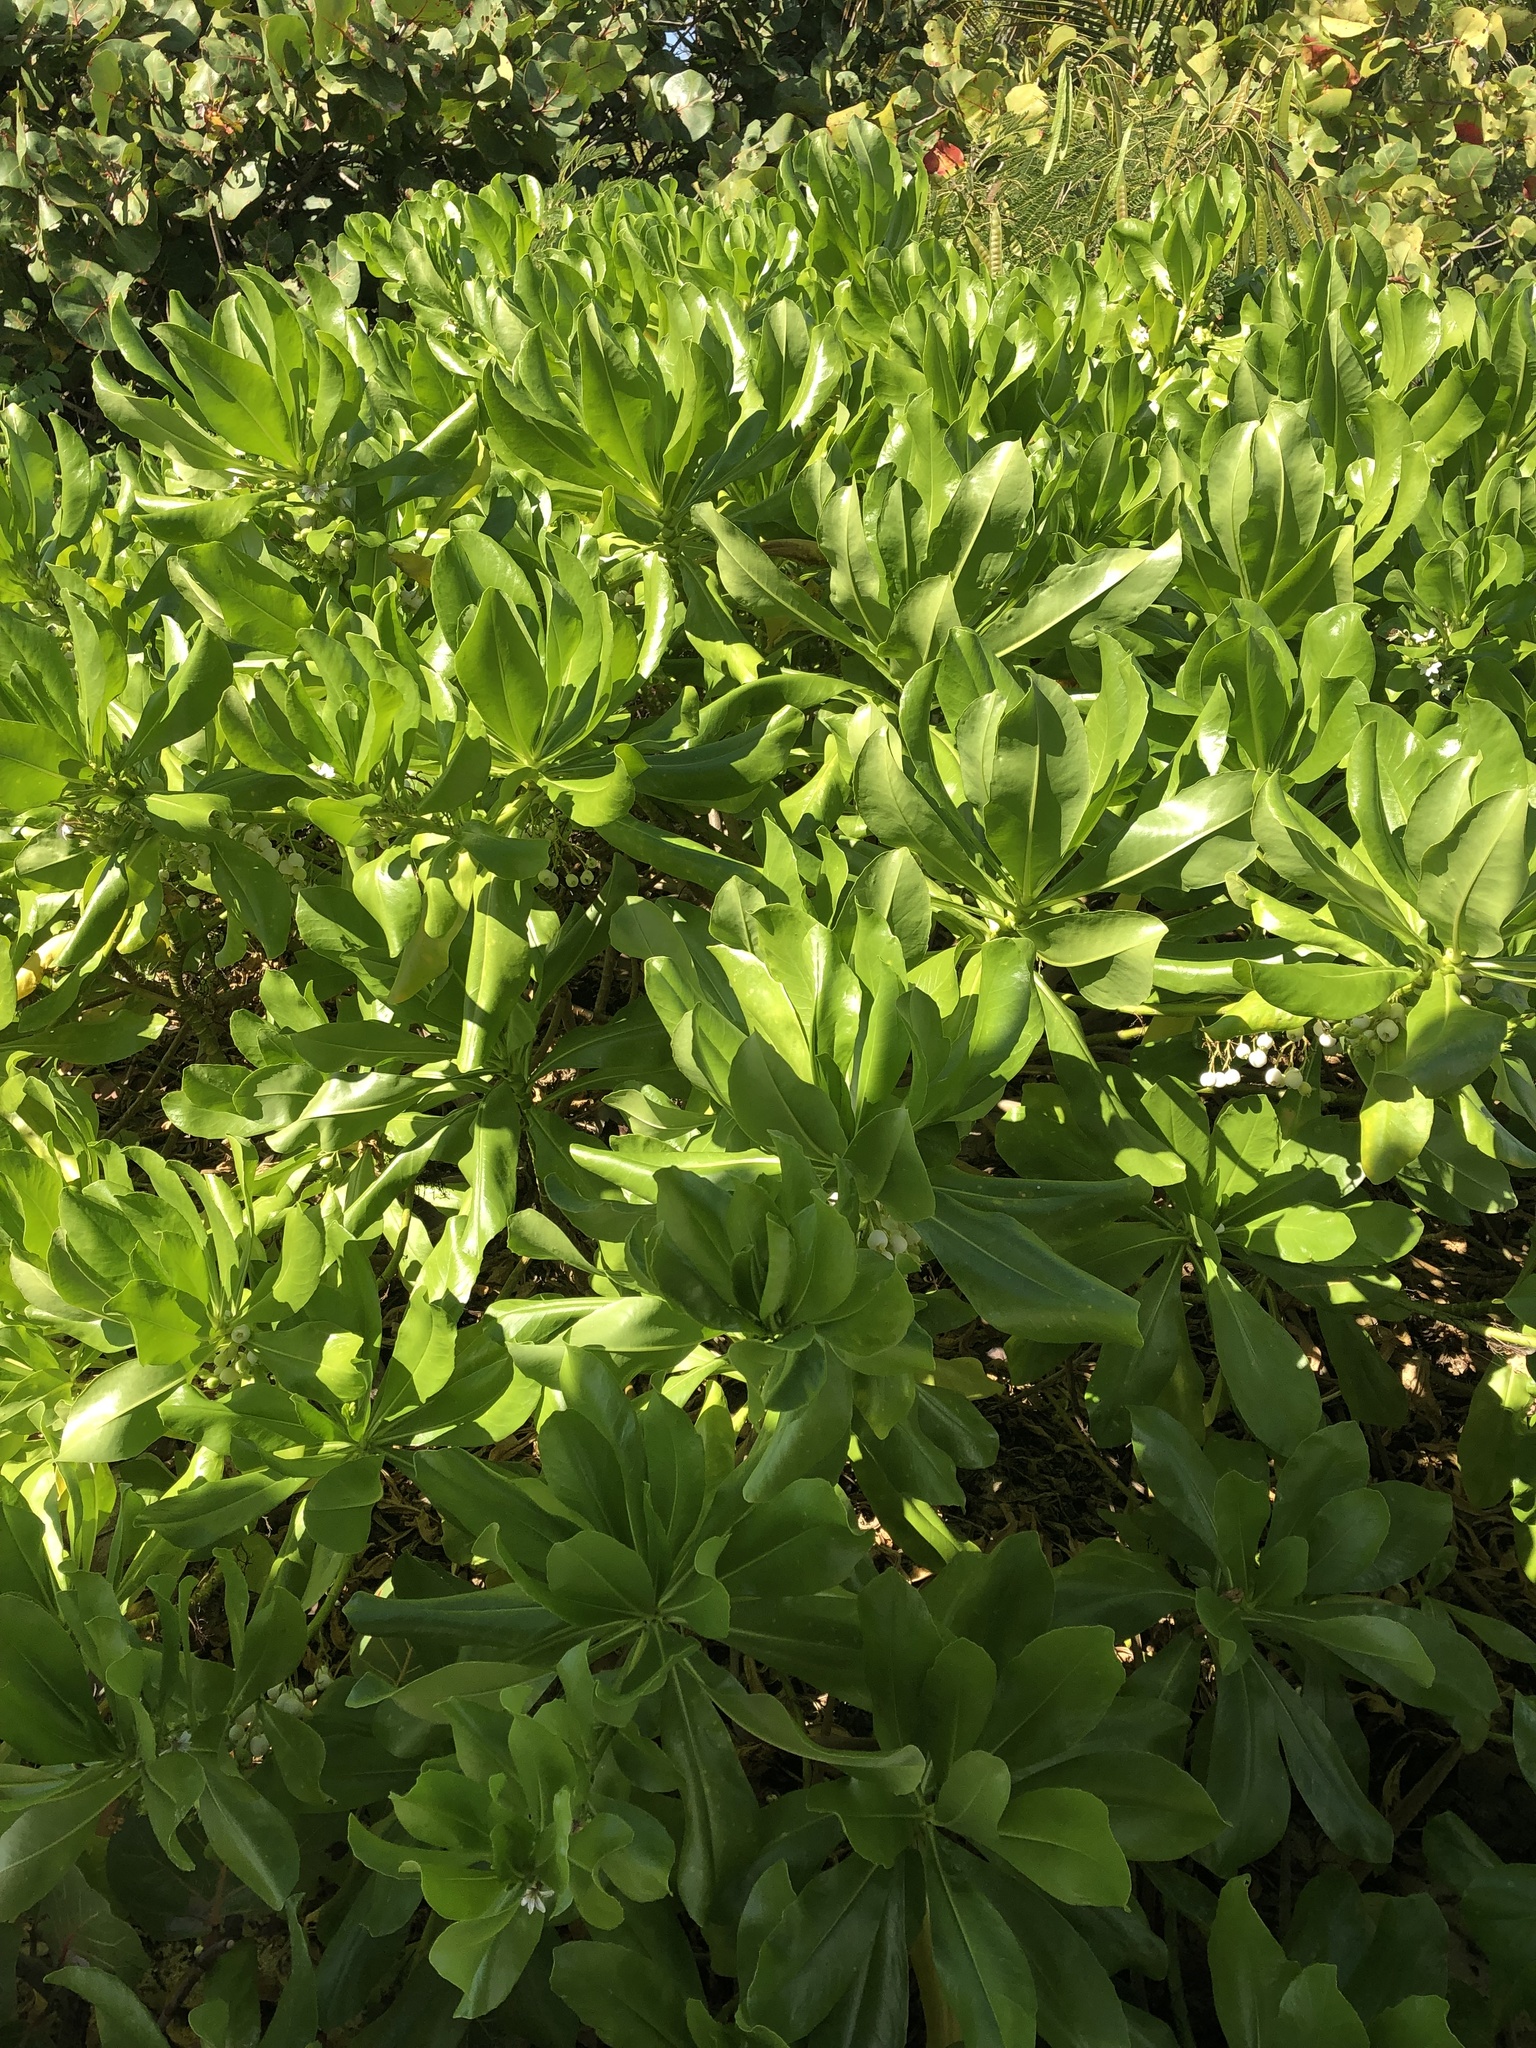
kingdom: Plantae
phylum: Tracheophyta
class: Magnoliopsida
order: Asterales
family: Goodeniaceae
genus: Scaevola
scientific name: Scaevola taccada
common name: Sea lettucetree
